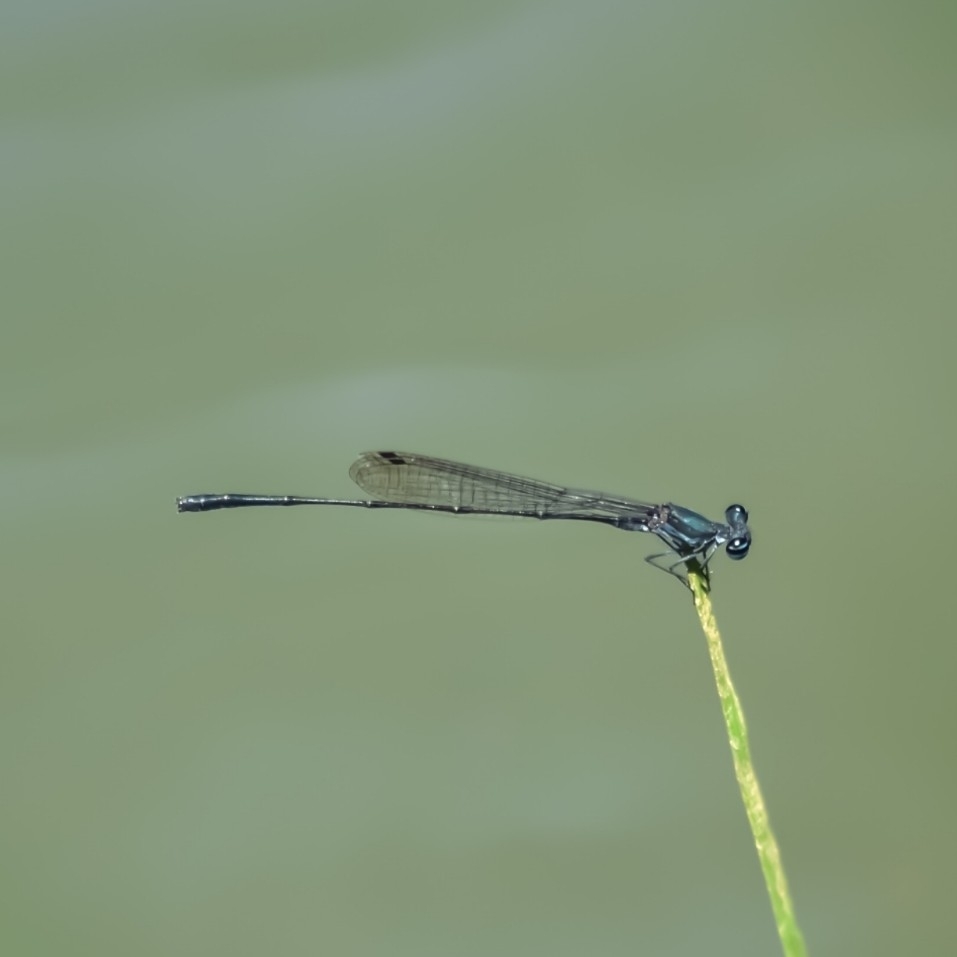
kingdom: Animalia
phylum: Arthropoda
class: Insecta
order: Odonata
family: Platycnemididae
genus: Elattoneura
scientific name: Elattoneura tetrica
